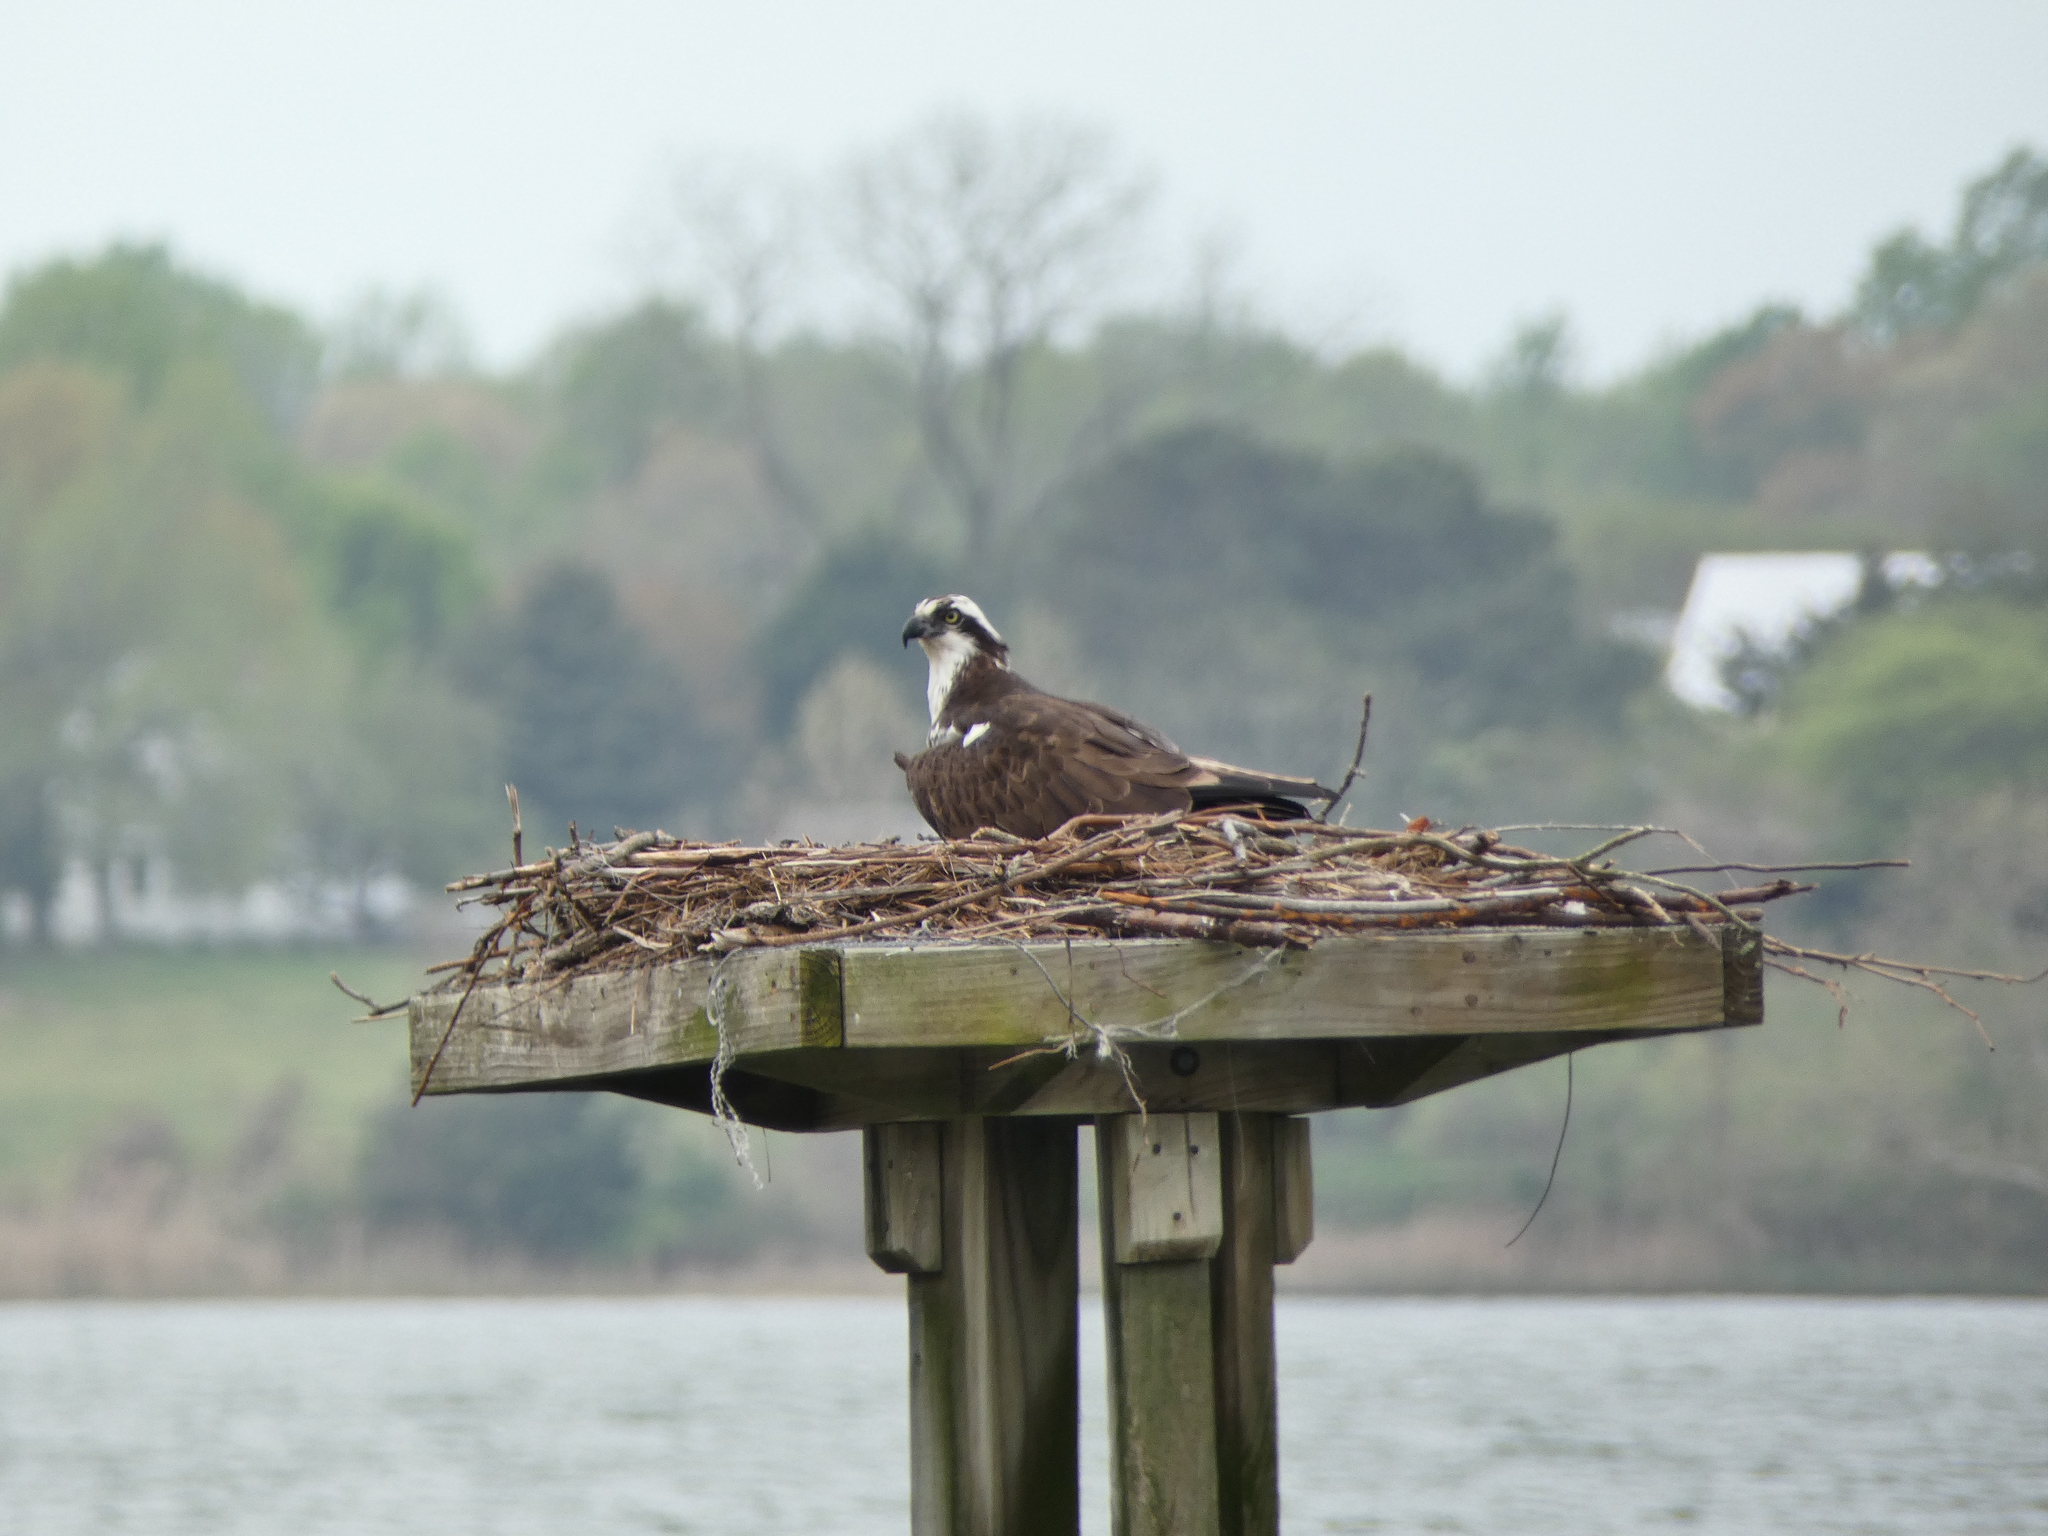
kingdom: Animalia
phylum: Chordata
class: Aves
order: Accipitriformes
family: Pandionidae
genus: Pandion
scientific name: Pandion haliaetus
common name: Osprey
